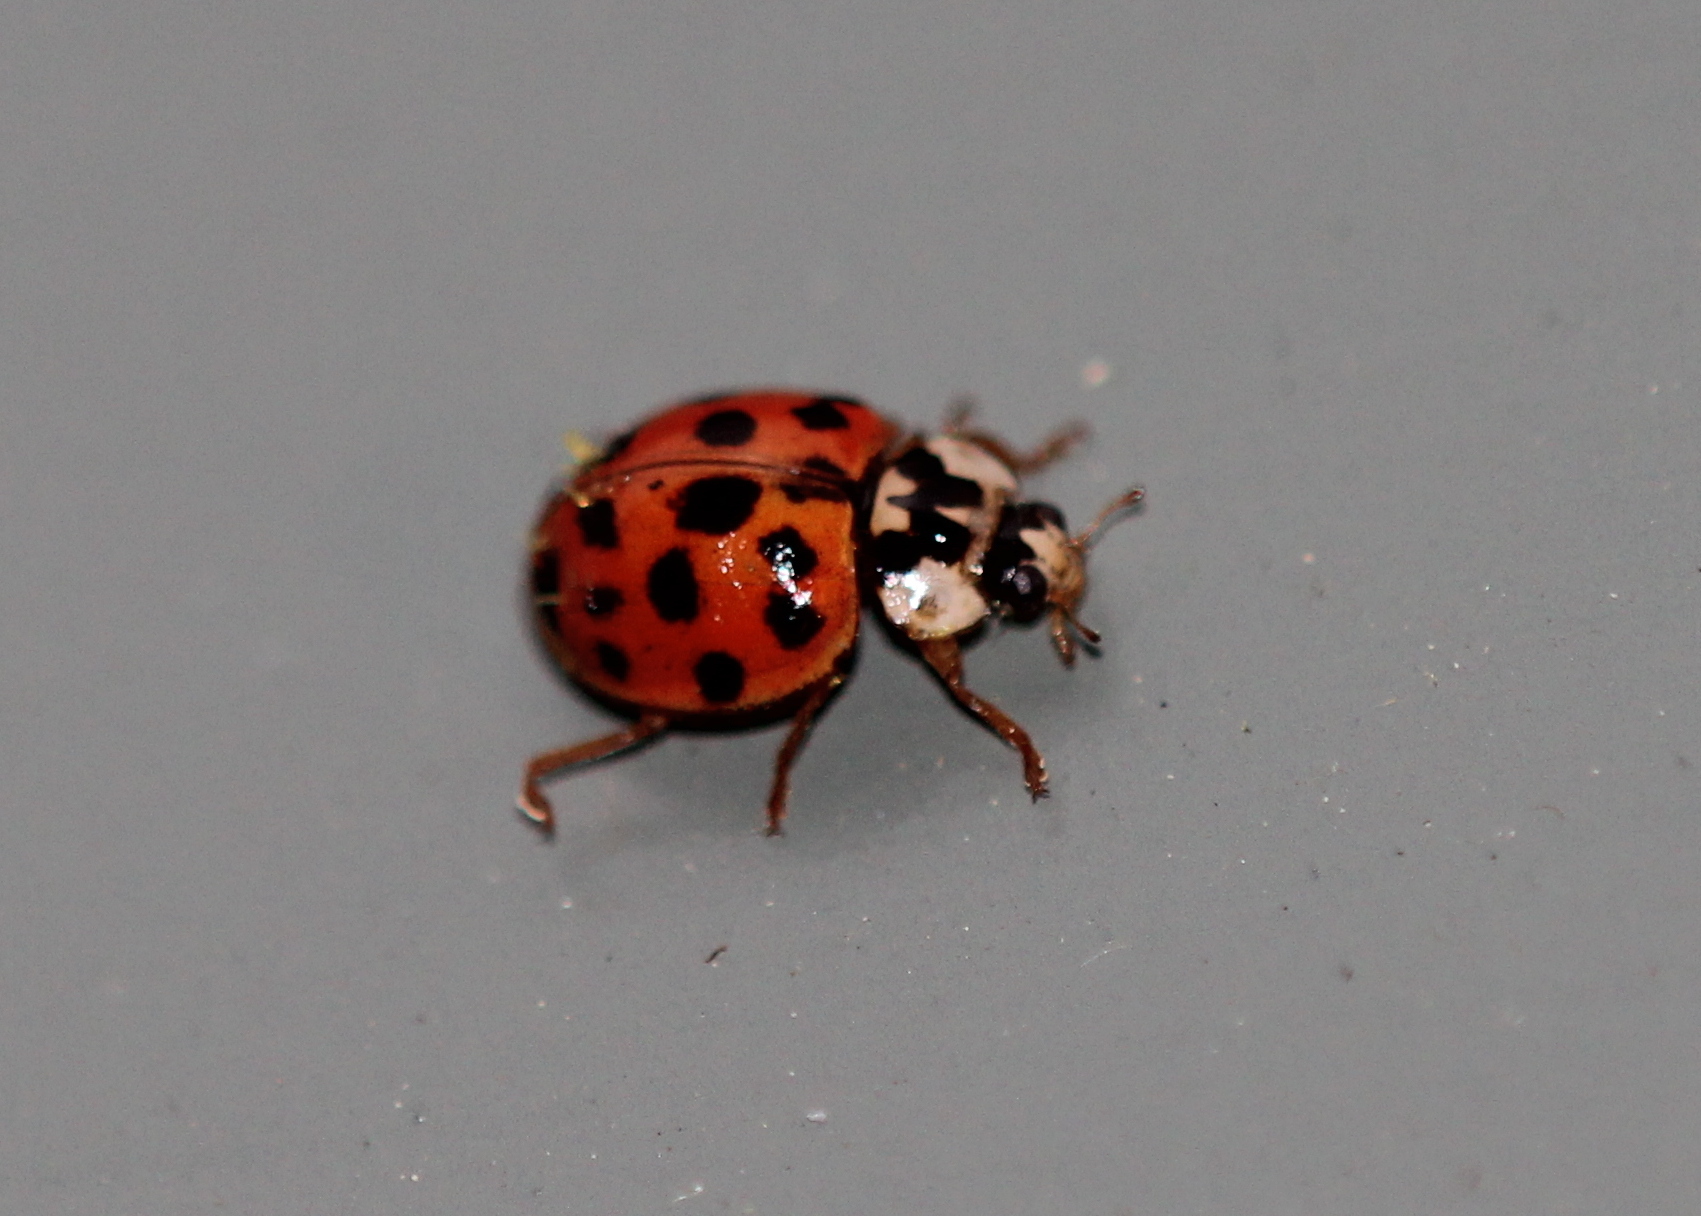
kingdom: Animalia
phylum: Arthropoda
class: Insecta
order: Coleoptera
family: Coccinellidae
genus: Harmonia
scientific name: Harmonia axyridis
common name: Harlequin ladybird
